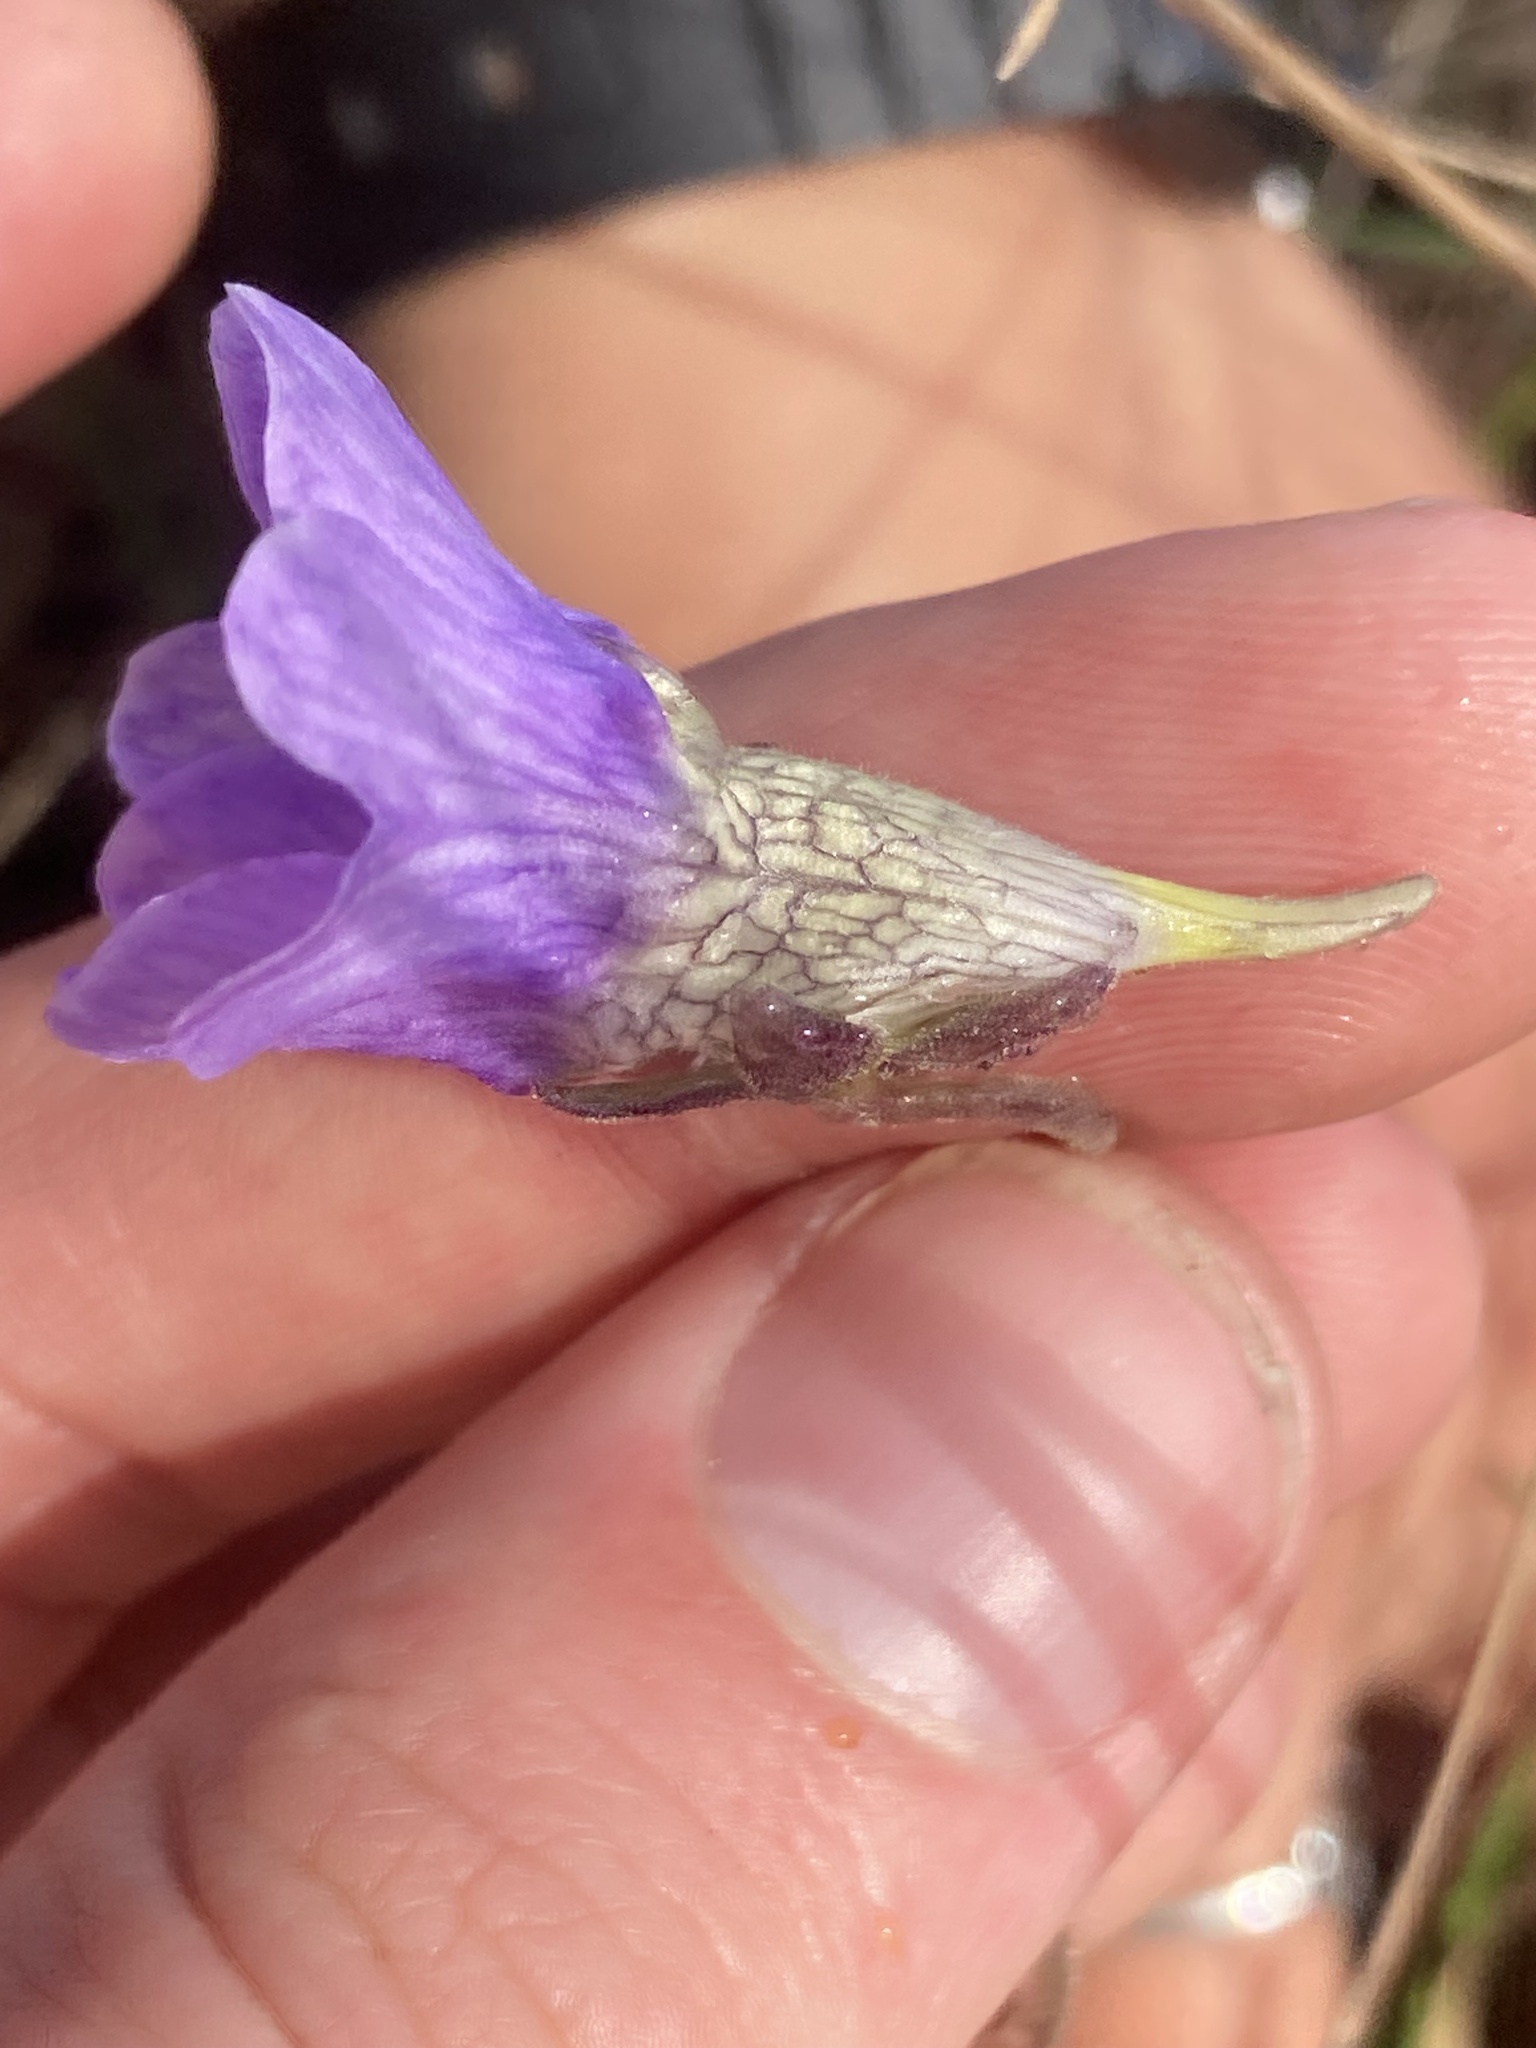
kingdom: Plantae
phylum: Tracheophyta
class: Magnoliopsida
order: Lamiales
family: Lentibulariaceae
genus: Pinguicula
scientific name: Pinguicula caerulea
